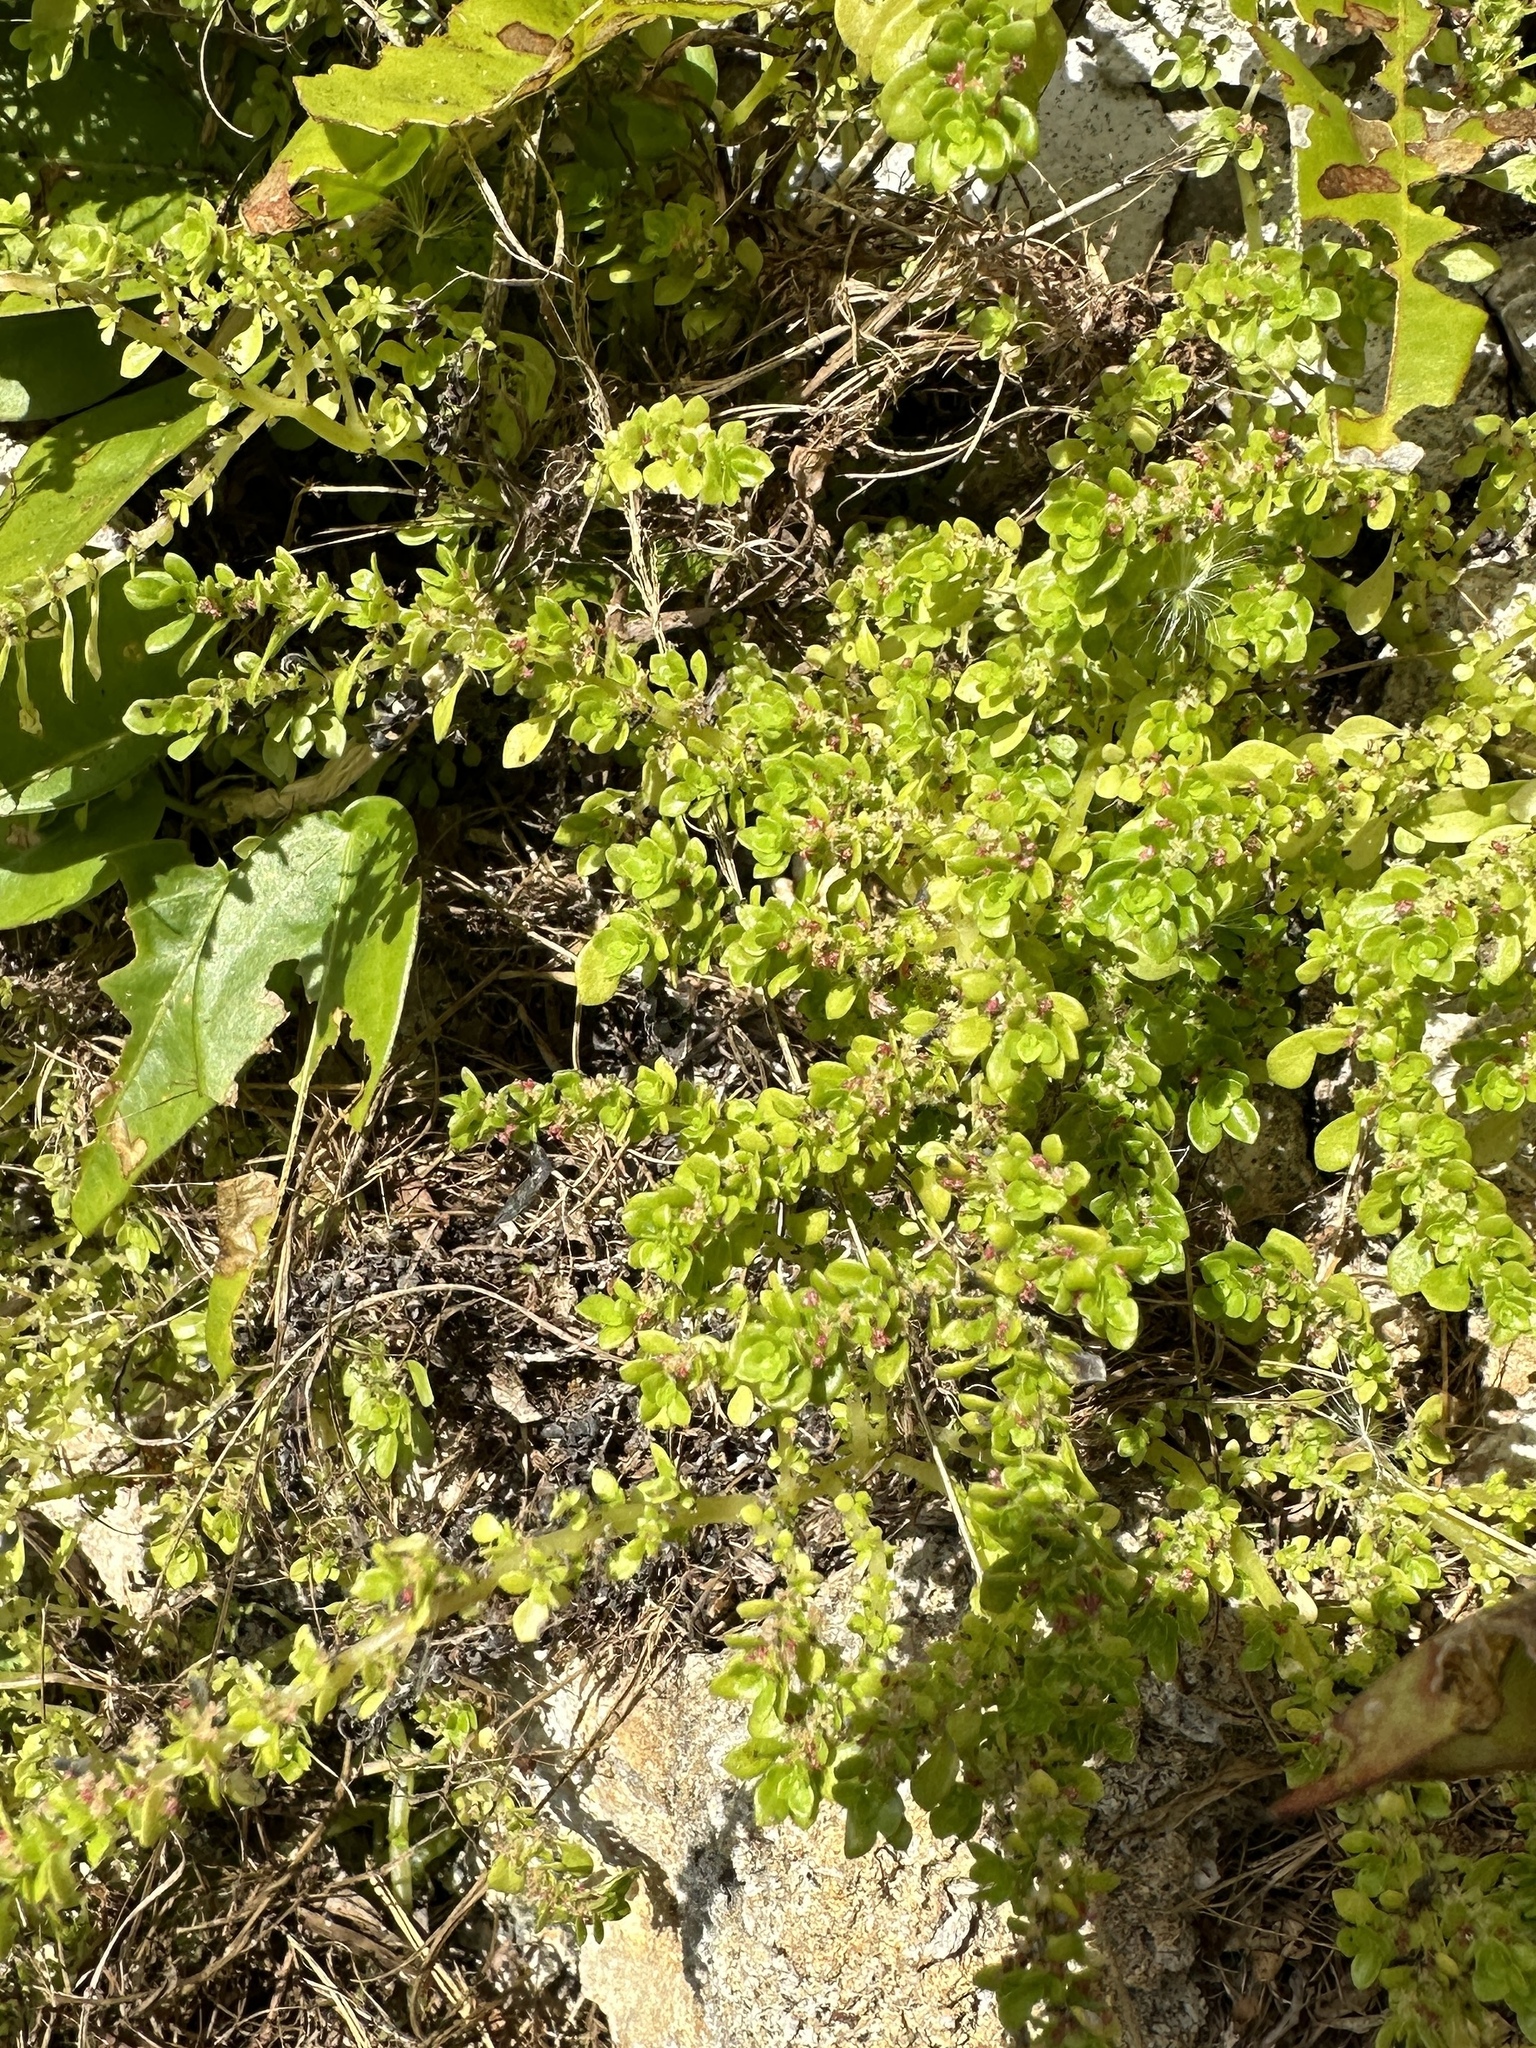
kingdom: Plantae
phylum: Tracheophyta
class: Magnoliopsida
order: Rosales
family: Urticaceae
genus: Pilea
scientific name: Pilea microphylla
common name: Artillery-plant
